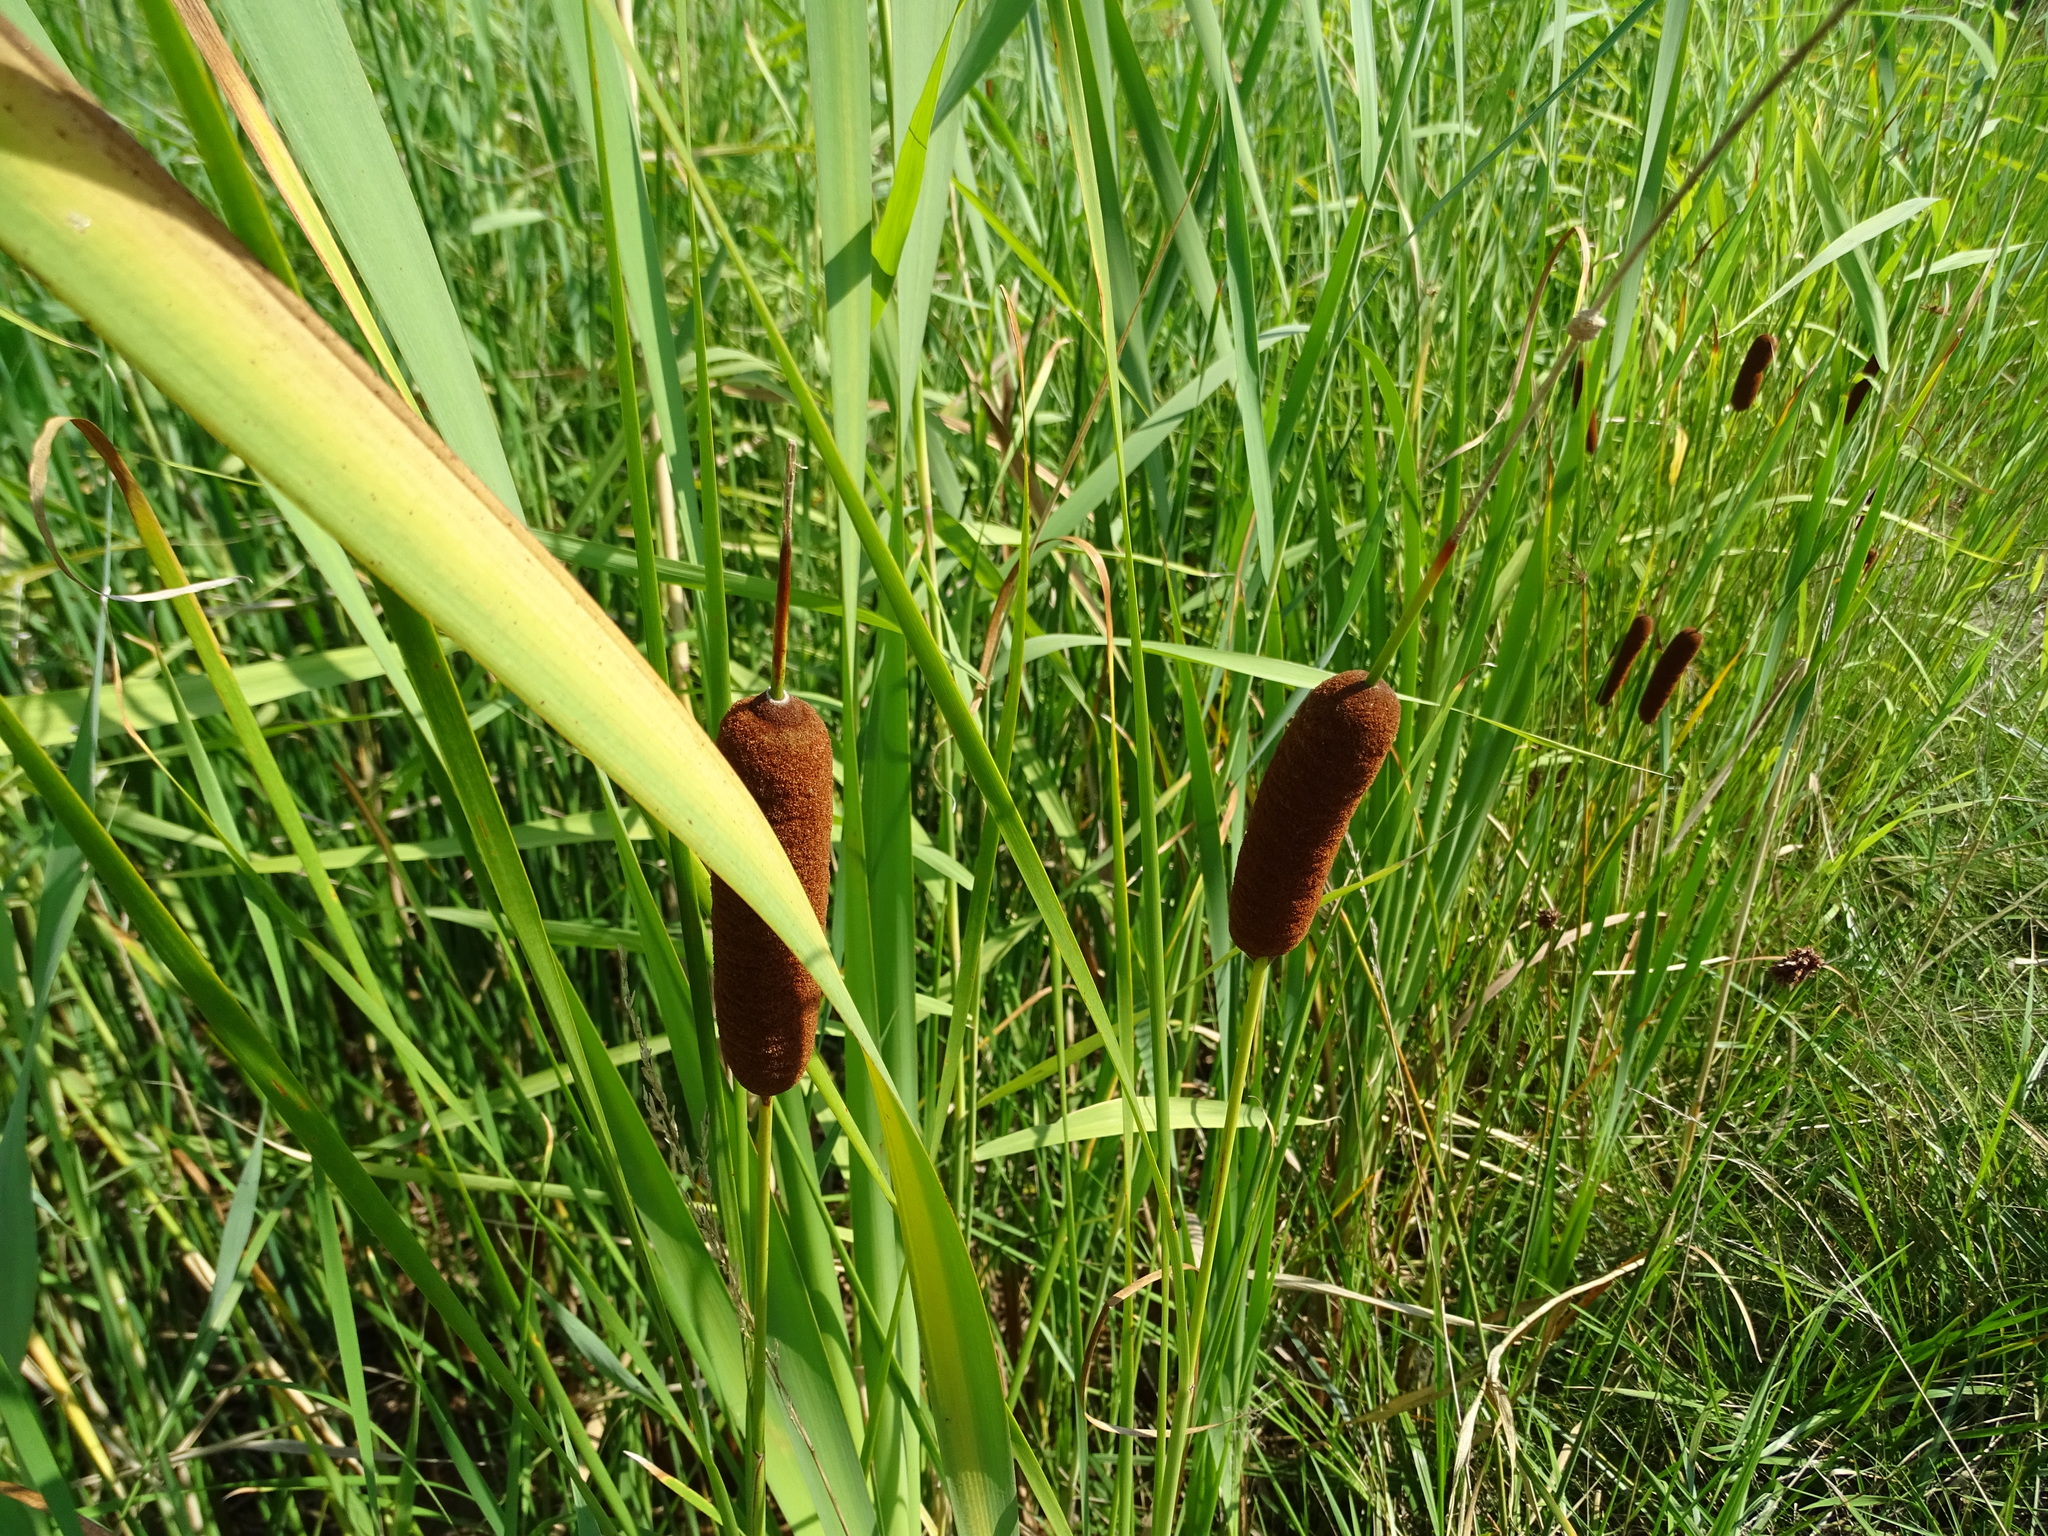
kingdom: Plantae
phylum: Tracheophyta
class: Liliopsida
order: Poales
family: Typhaceae
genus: Typha
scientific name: Typha laxmannii
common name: Laxman’s bulrush
